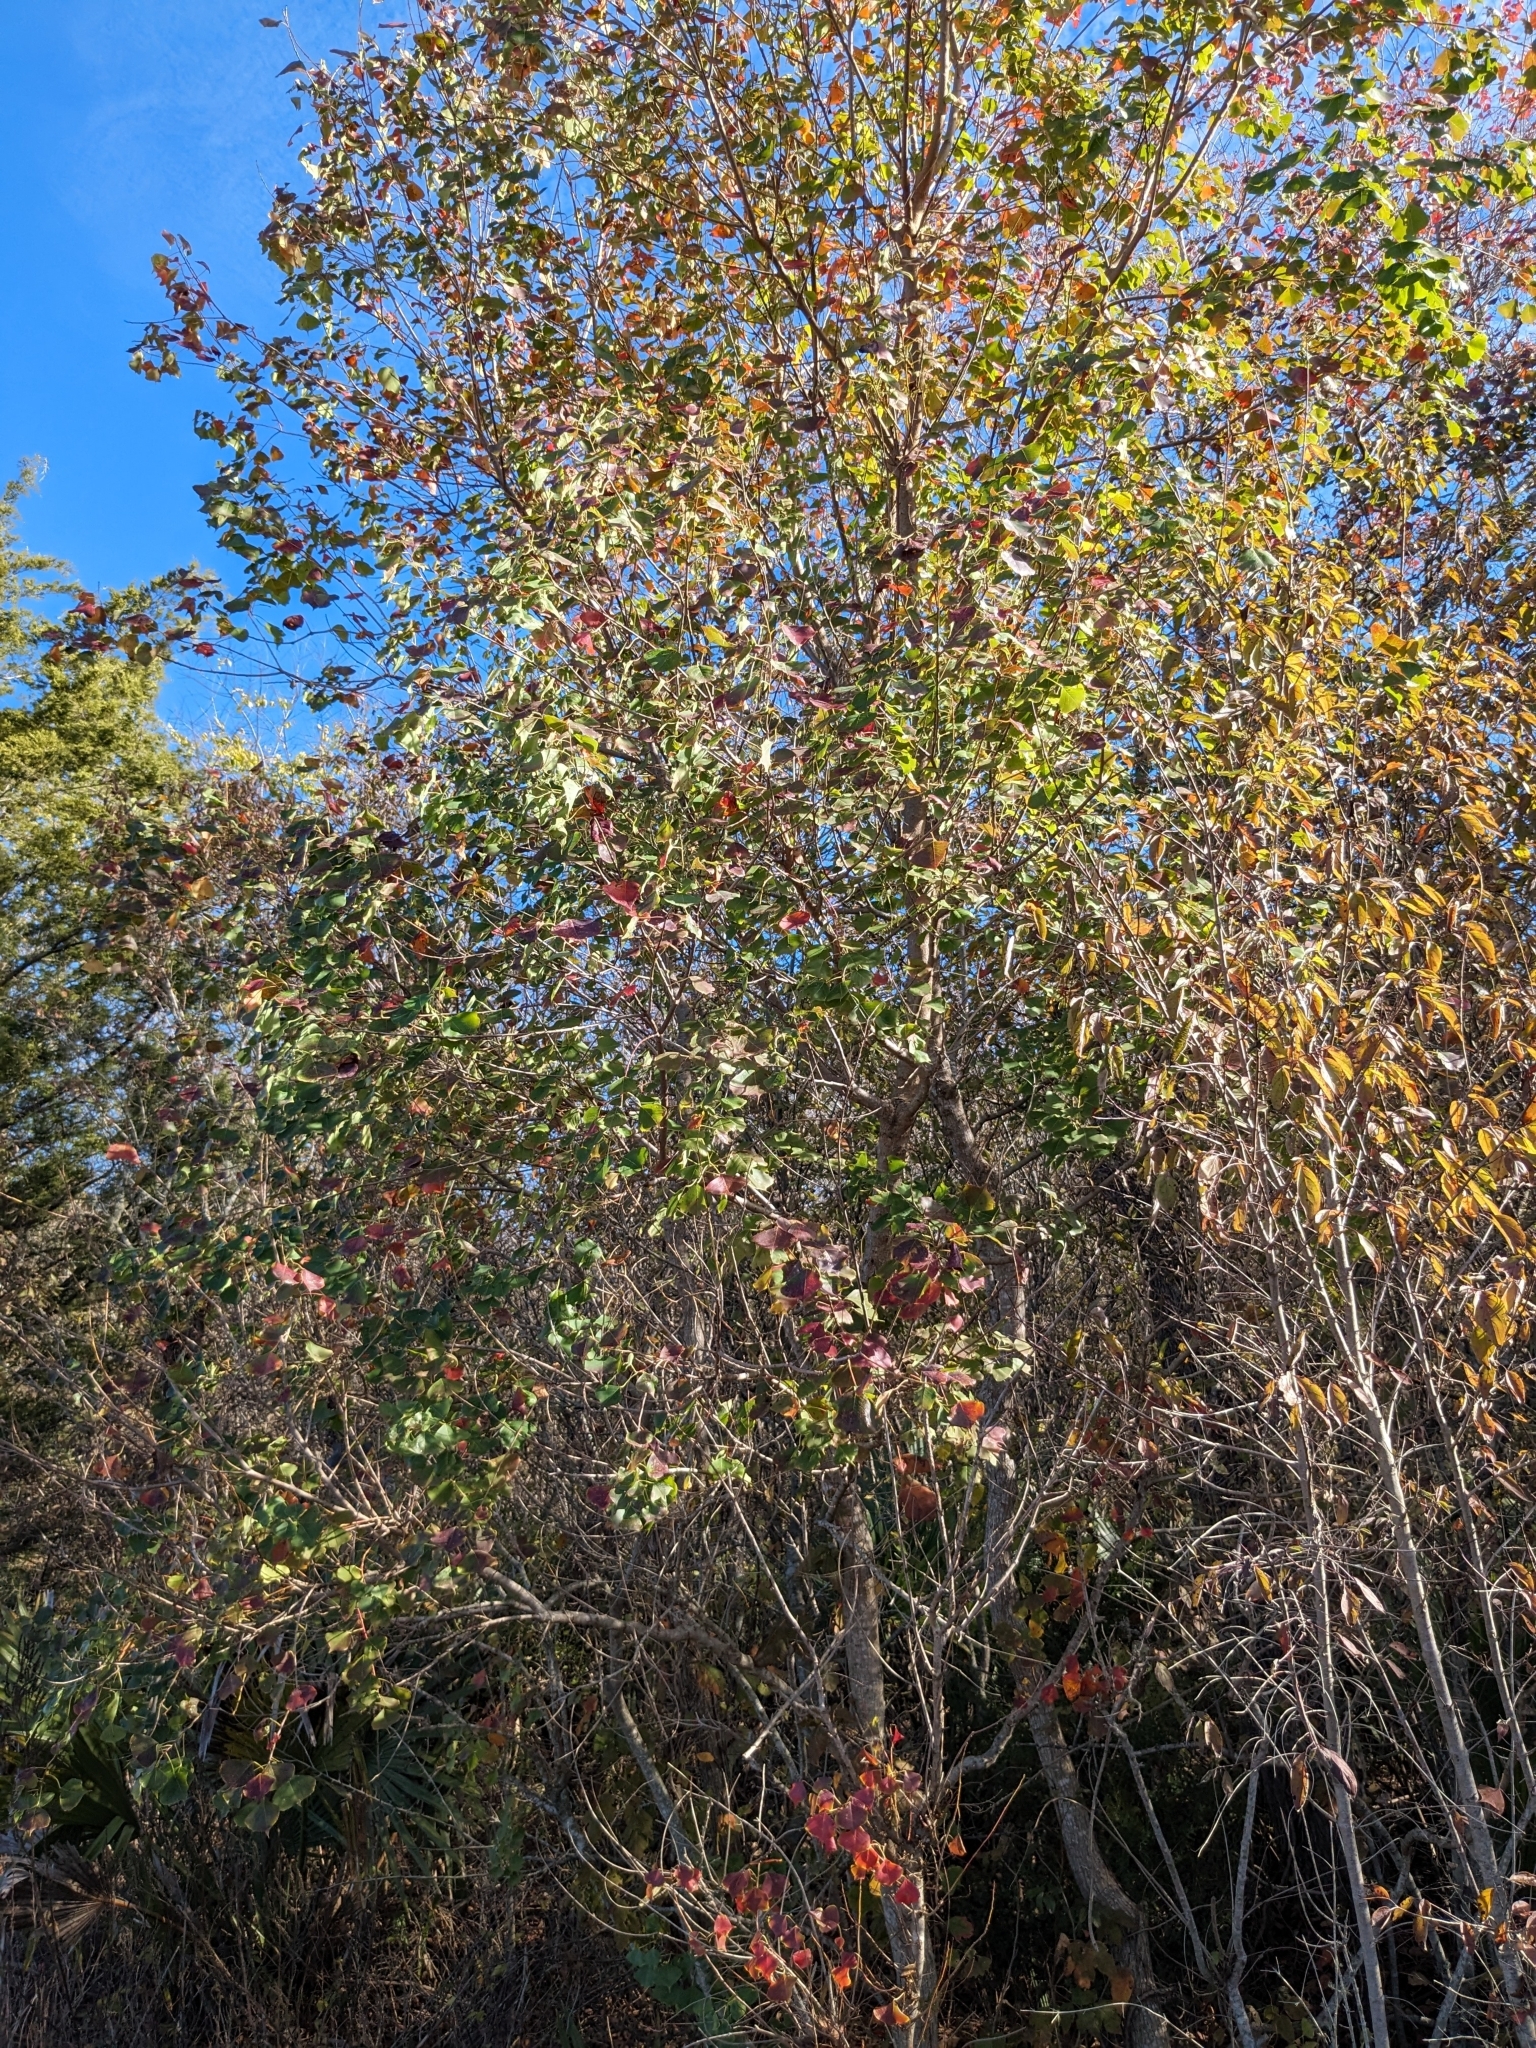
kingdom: Plantae
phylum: Tracheophyta
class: Magnoliopsida
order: Malpighiales
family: Euphorbiaceae
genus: Triadica
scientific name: Triadica sebifera
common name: Chinese tallow
